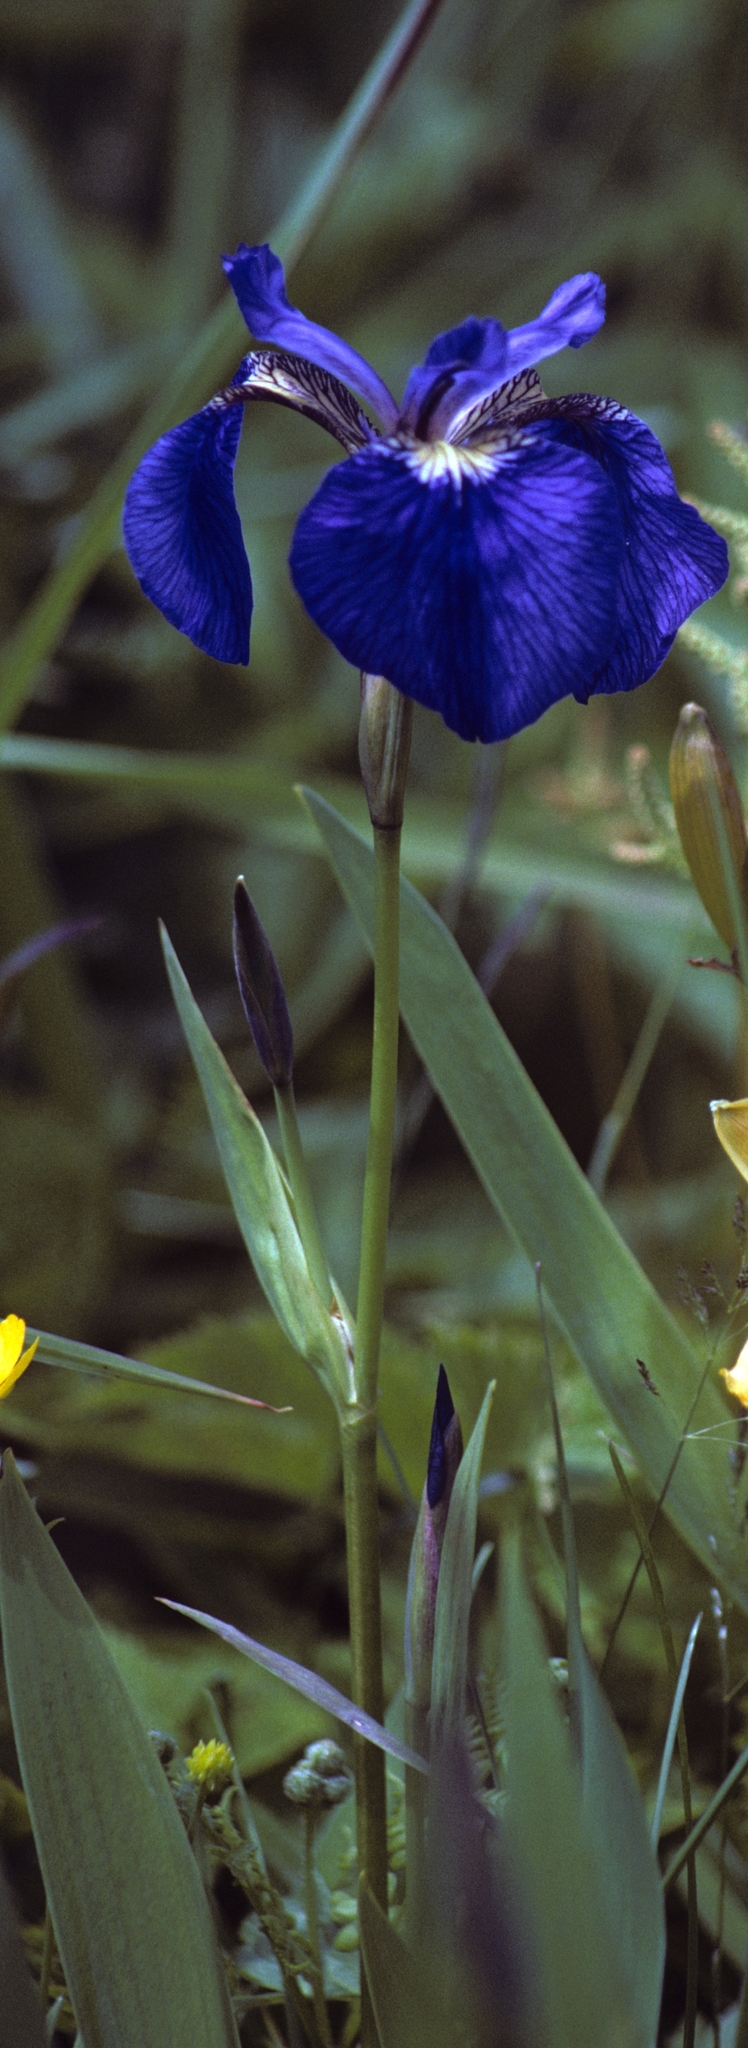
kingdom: Plantae
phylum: Tracheophyta
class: Liliopsida
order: Asparagales
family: Iridaceae
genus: Iris
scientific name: Iris setosa
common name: Arctic blue flag
